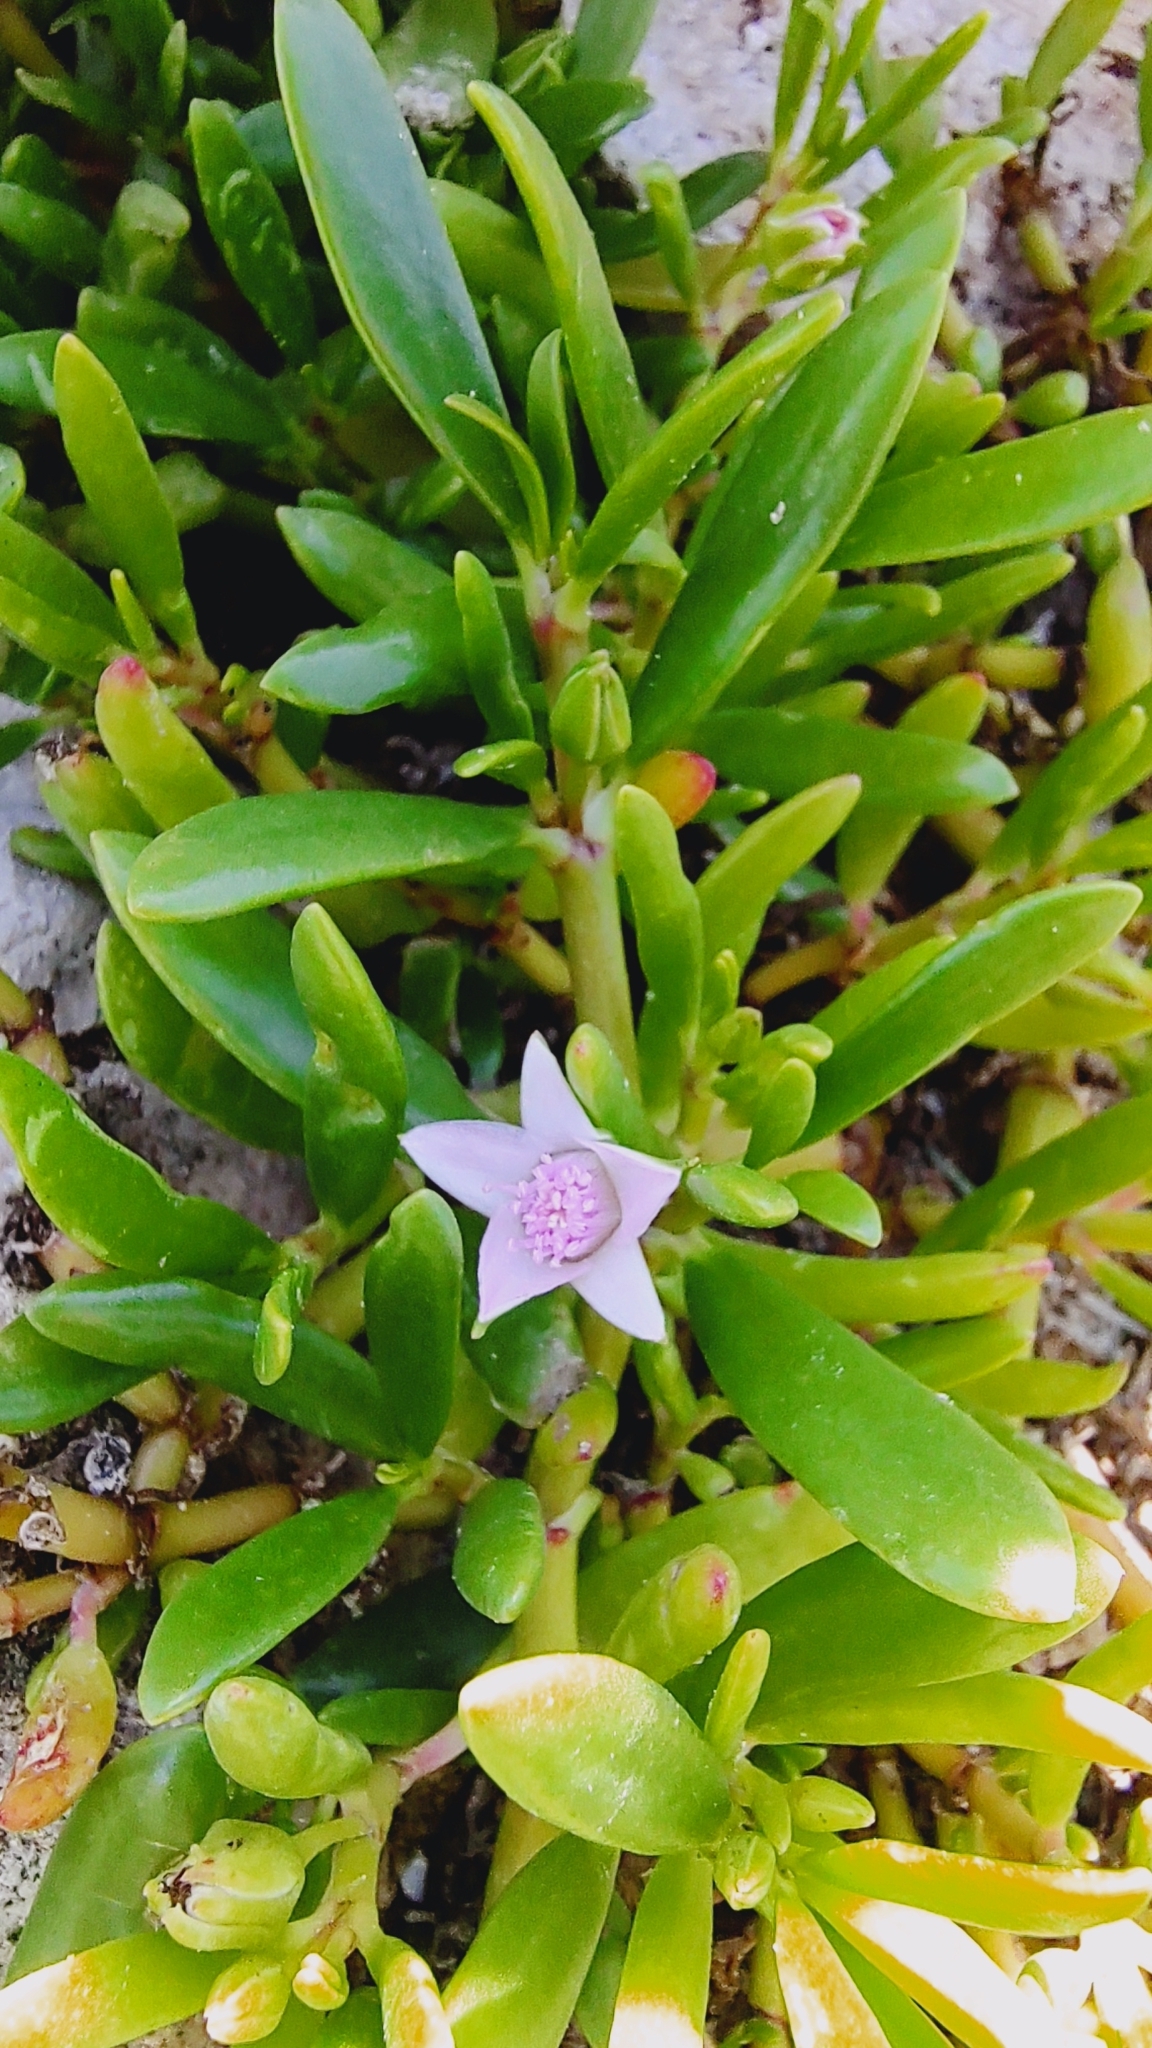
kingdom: Plantae
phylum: Tracheophyta
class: Magnoliopsida
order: Caryophyllales
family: Aizoaceae
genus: Sesuvium
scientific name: Sesuvium portulacastrum
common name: Sea-purslane
